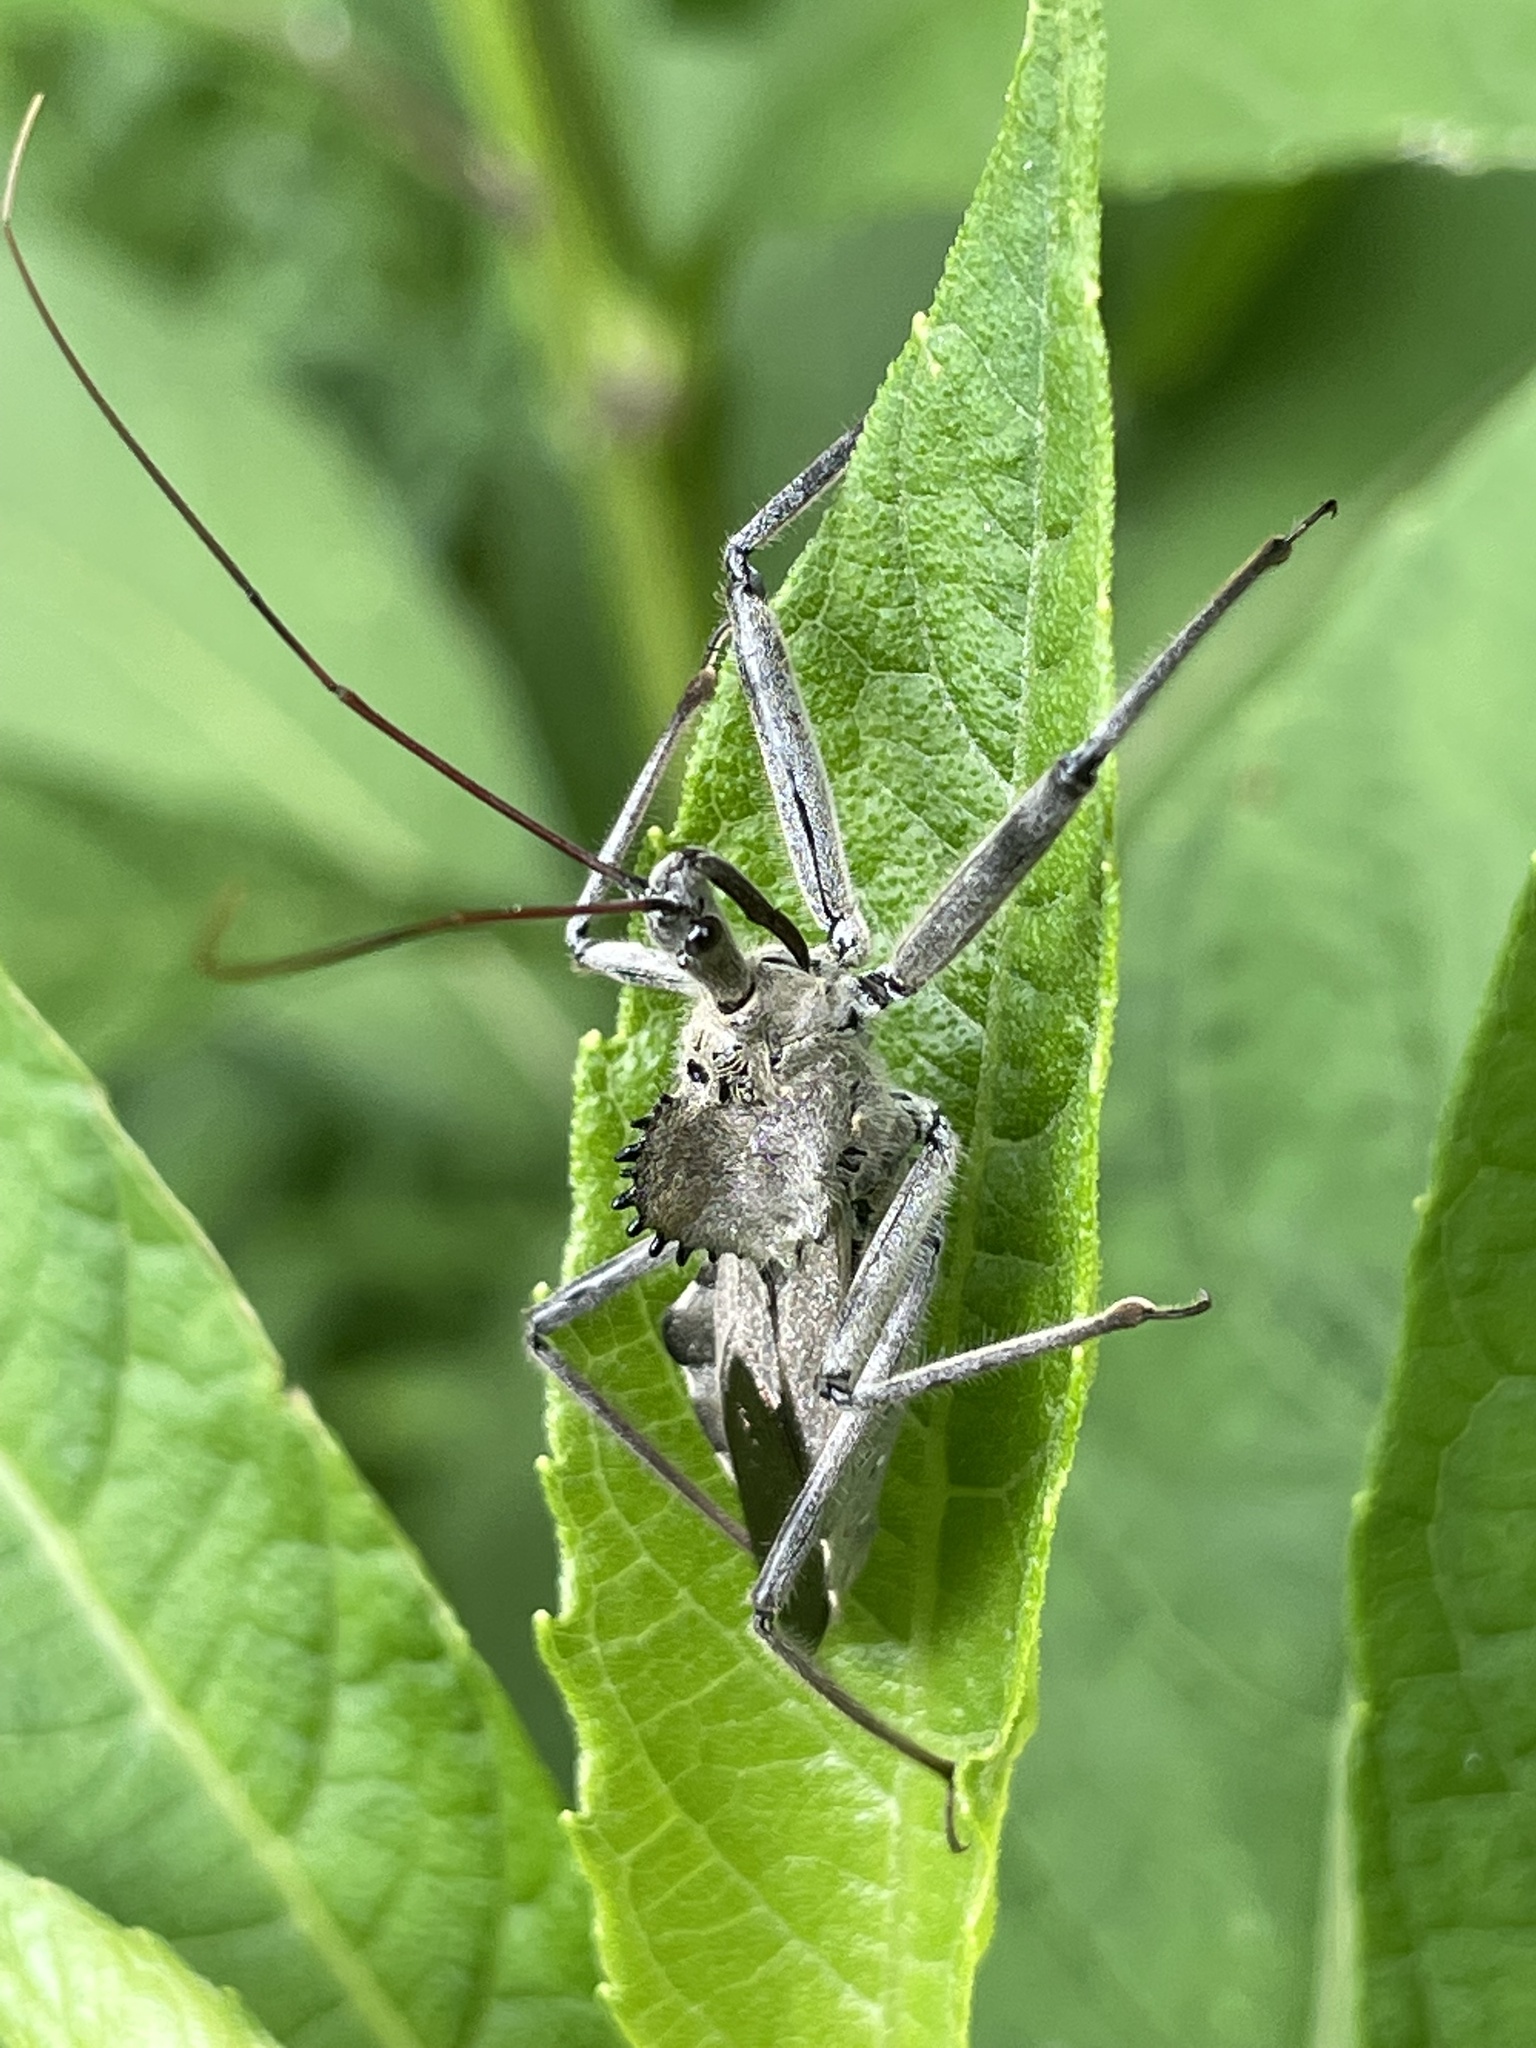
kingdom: Animalia
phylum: Arthropoda
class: Insecta
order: Hemiptera
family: Reduviidae
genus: Arilus
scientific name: Arilus cristatus
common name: North american wheel bug
